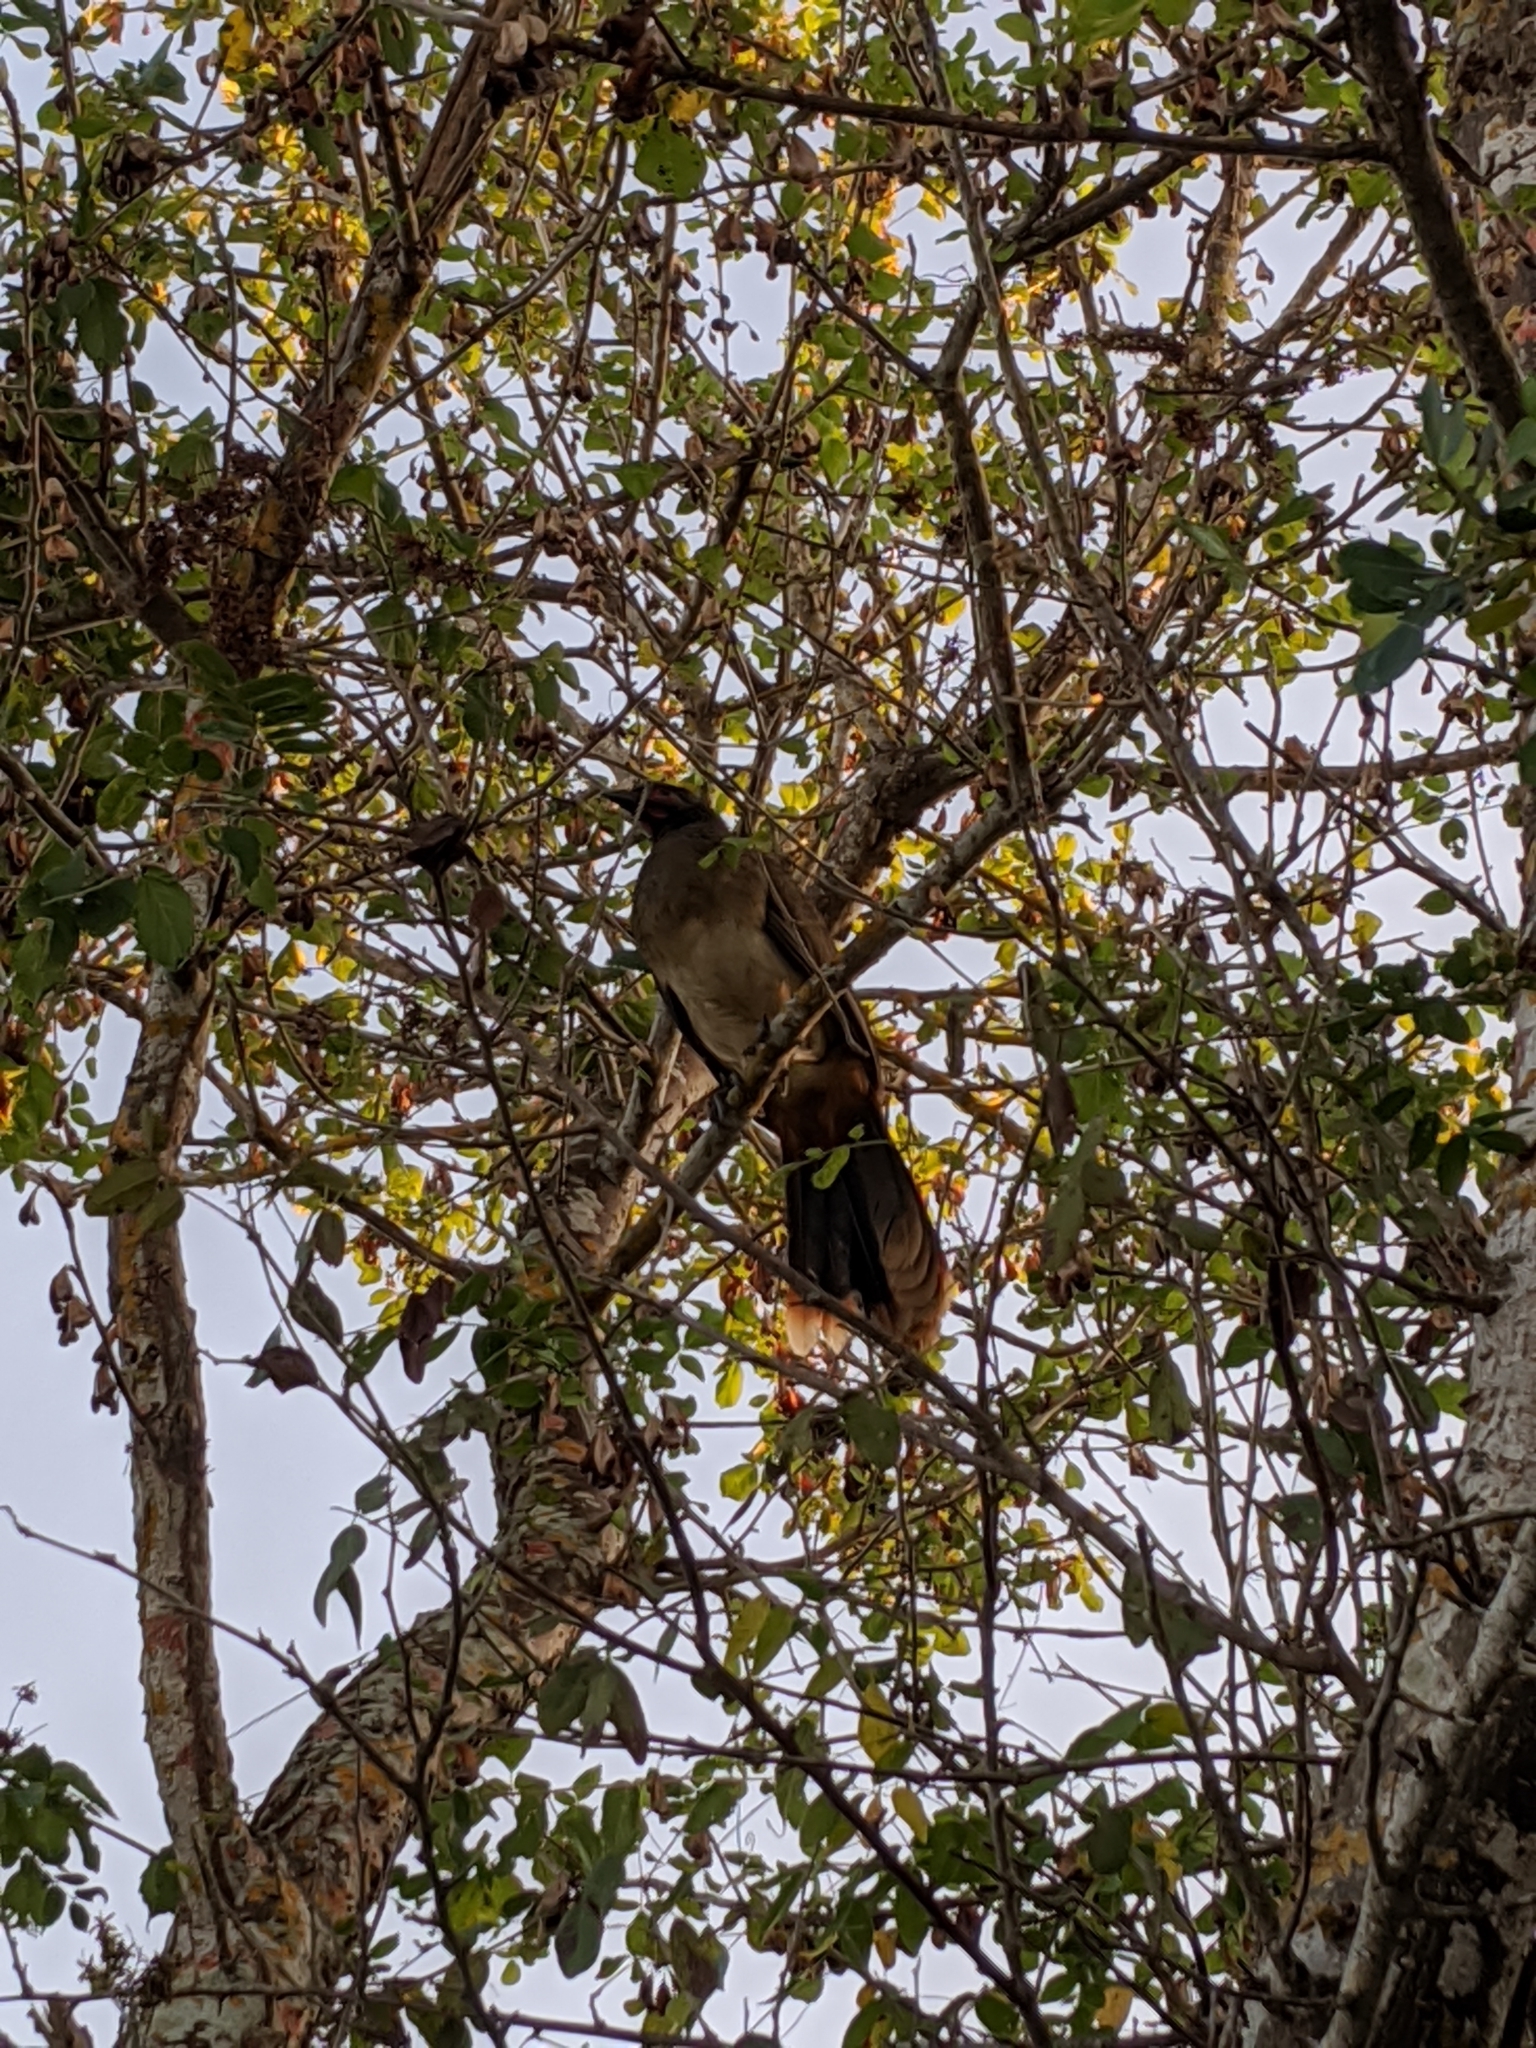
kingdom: Animalia
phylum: Chordata
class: Aves
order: Galliformes
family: Cracidae
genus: Ortalis
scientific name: Ortalis poliocephala
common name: West mexican chachalaca
